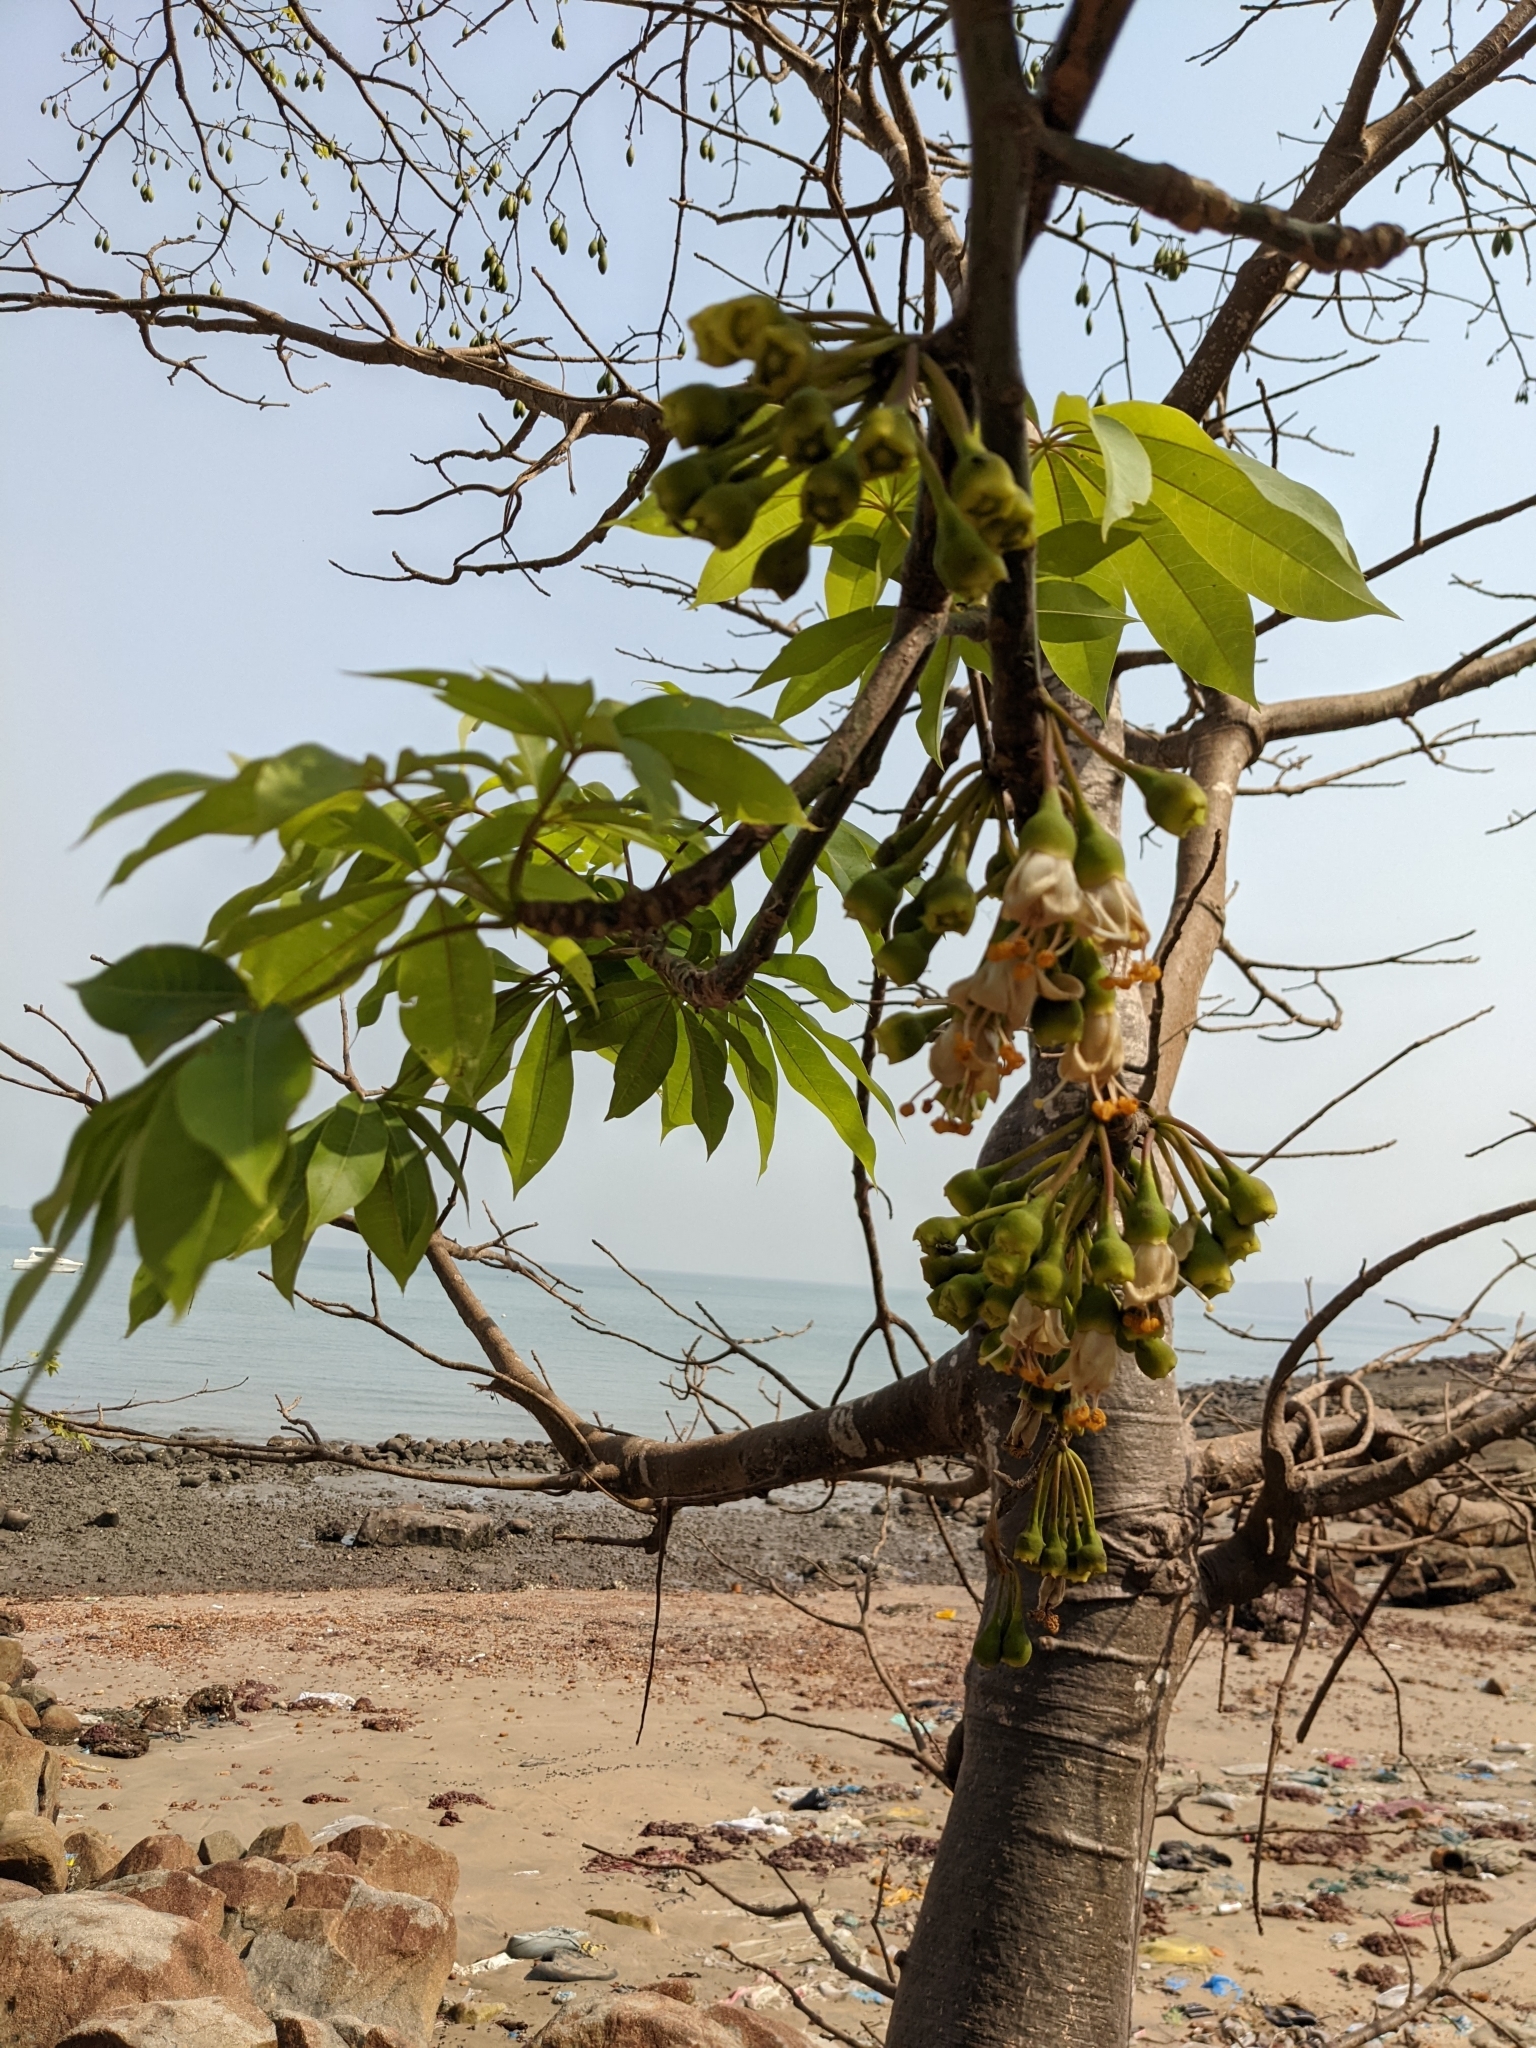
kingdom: Plantae
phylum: Tracheophyta
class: Magnoliopsida
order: Malvales
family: Malvaceae
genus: Ceiba
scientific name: Ceiba pentandra
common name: Kapok
